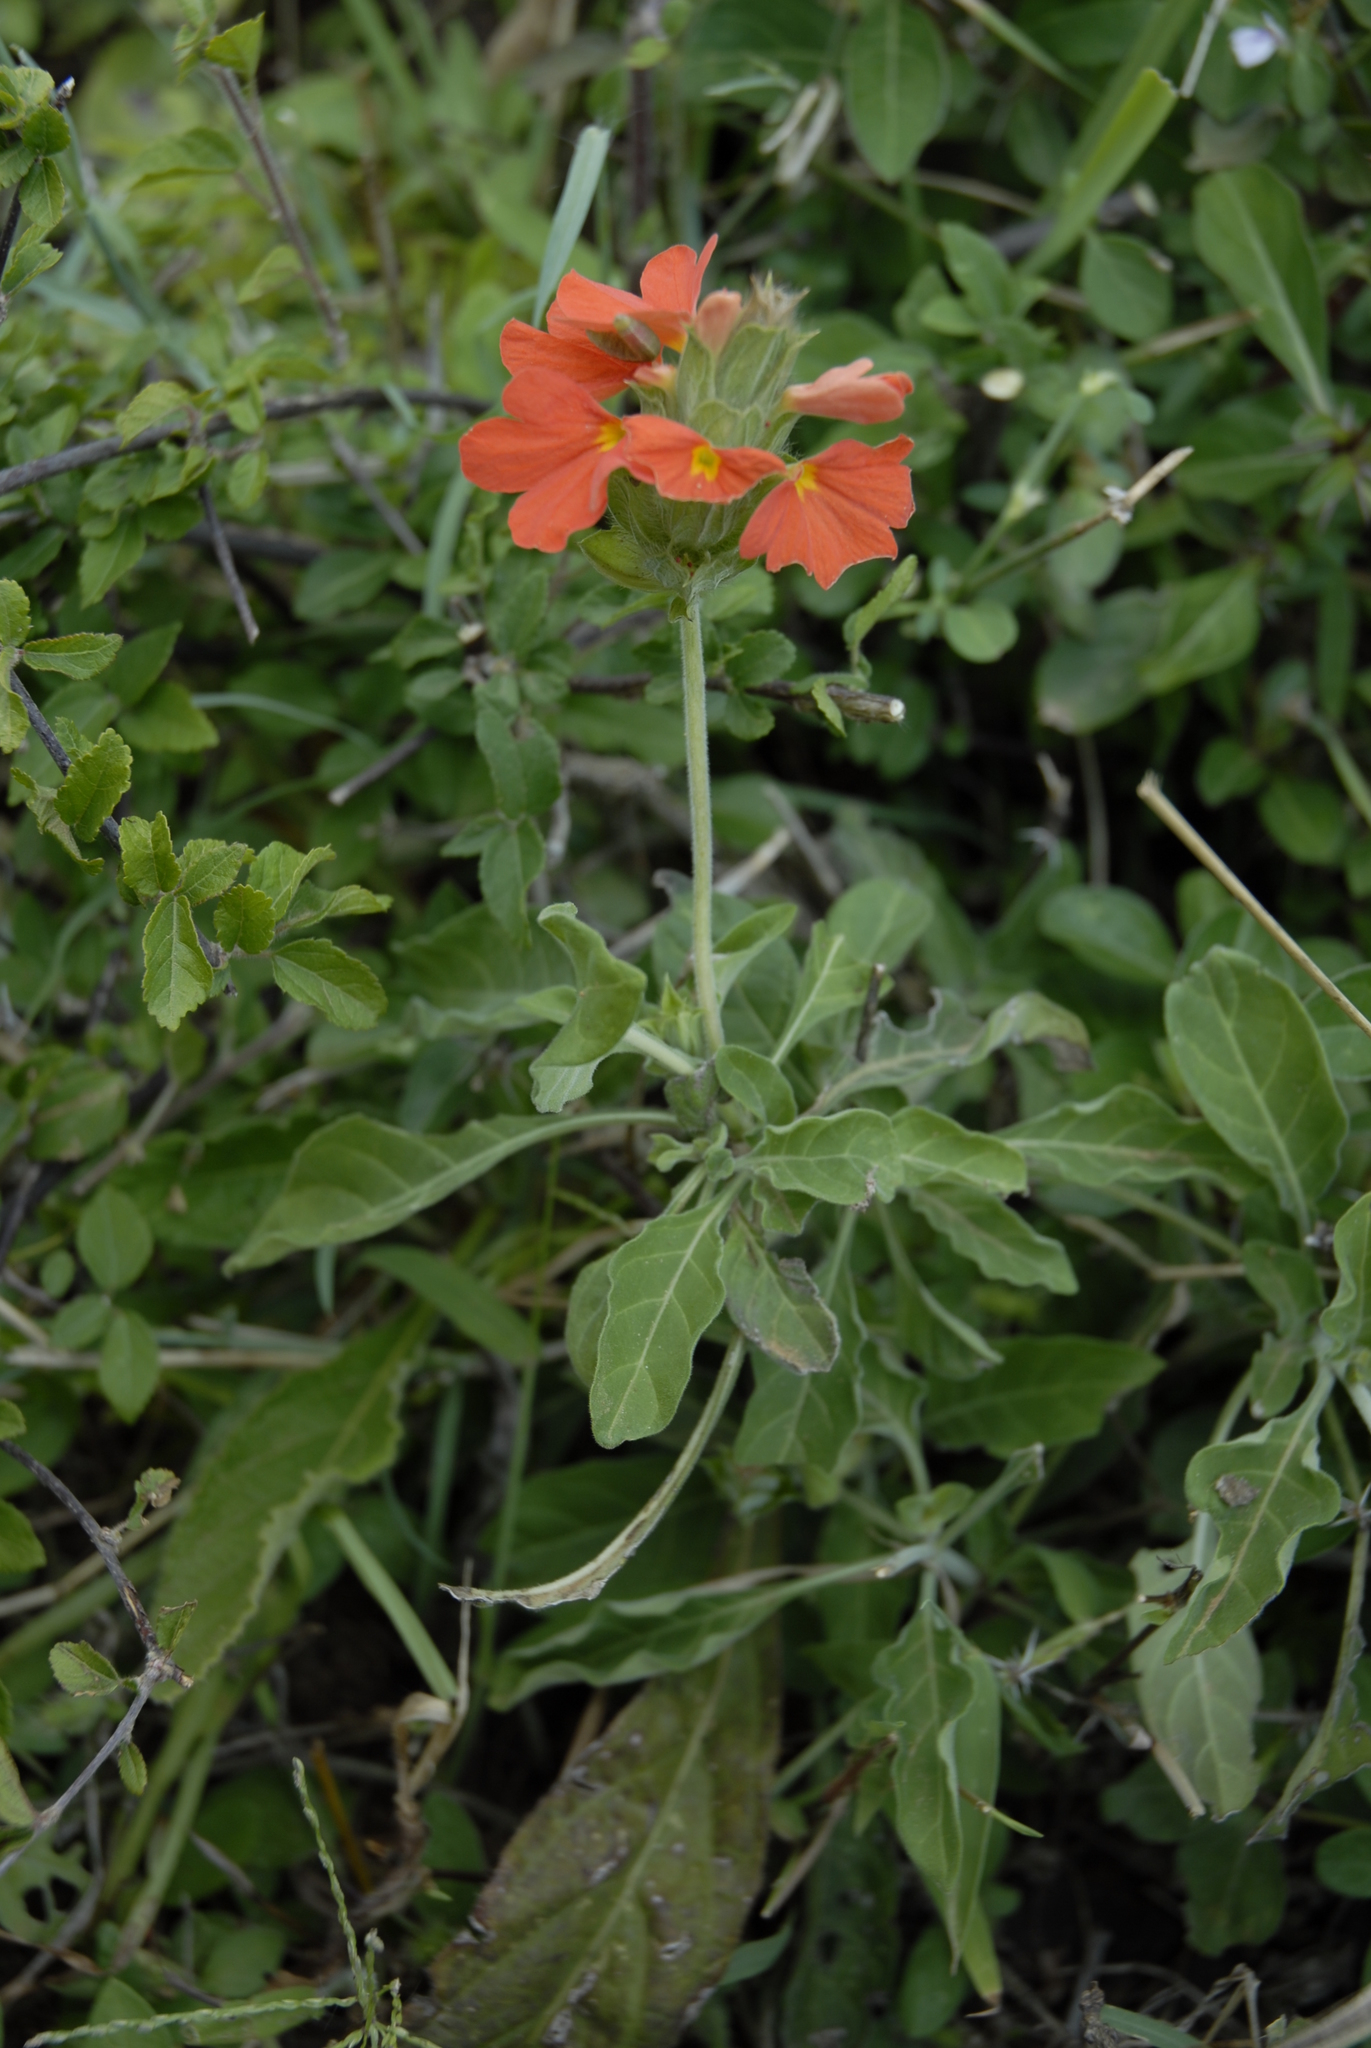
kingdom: Plantae
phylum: Tracheophyta
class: Magnoliopsida
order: Lamiales
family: Acanthaceae
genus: Crossandra
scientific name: Crossandra mucronata
